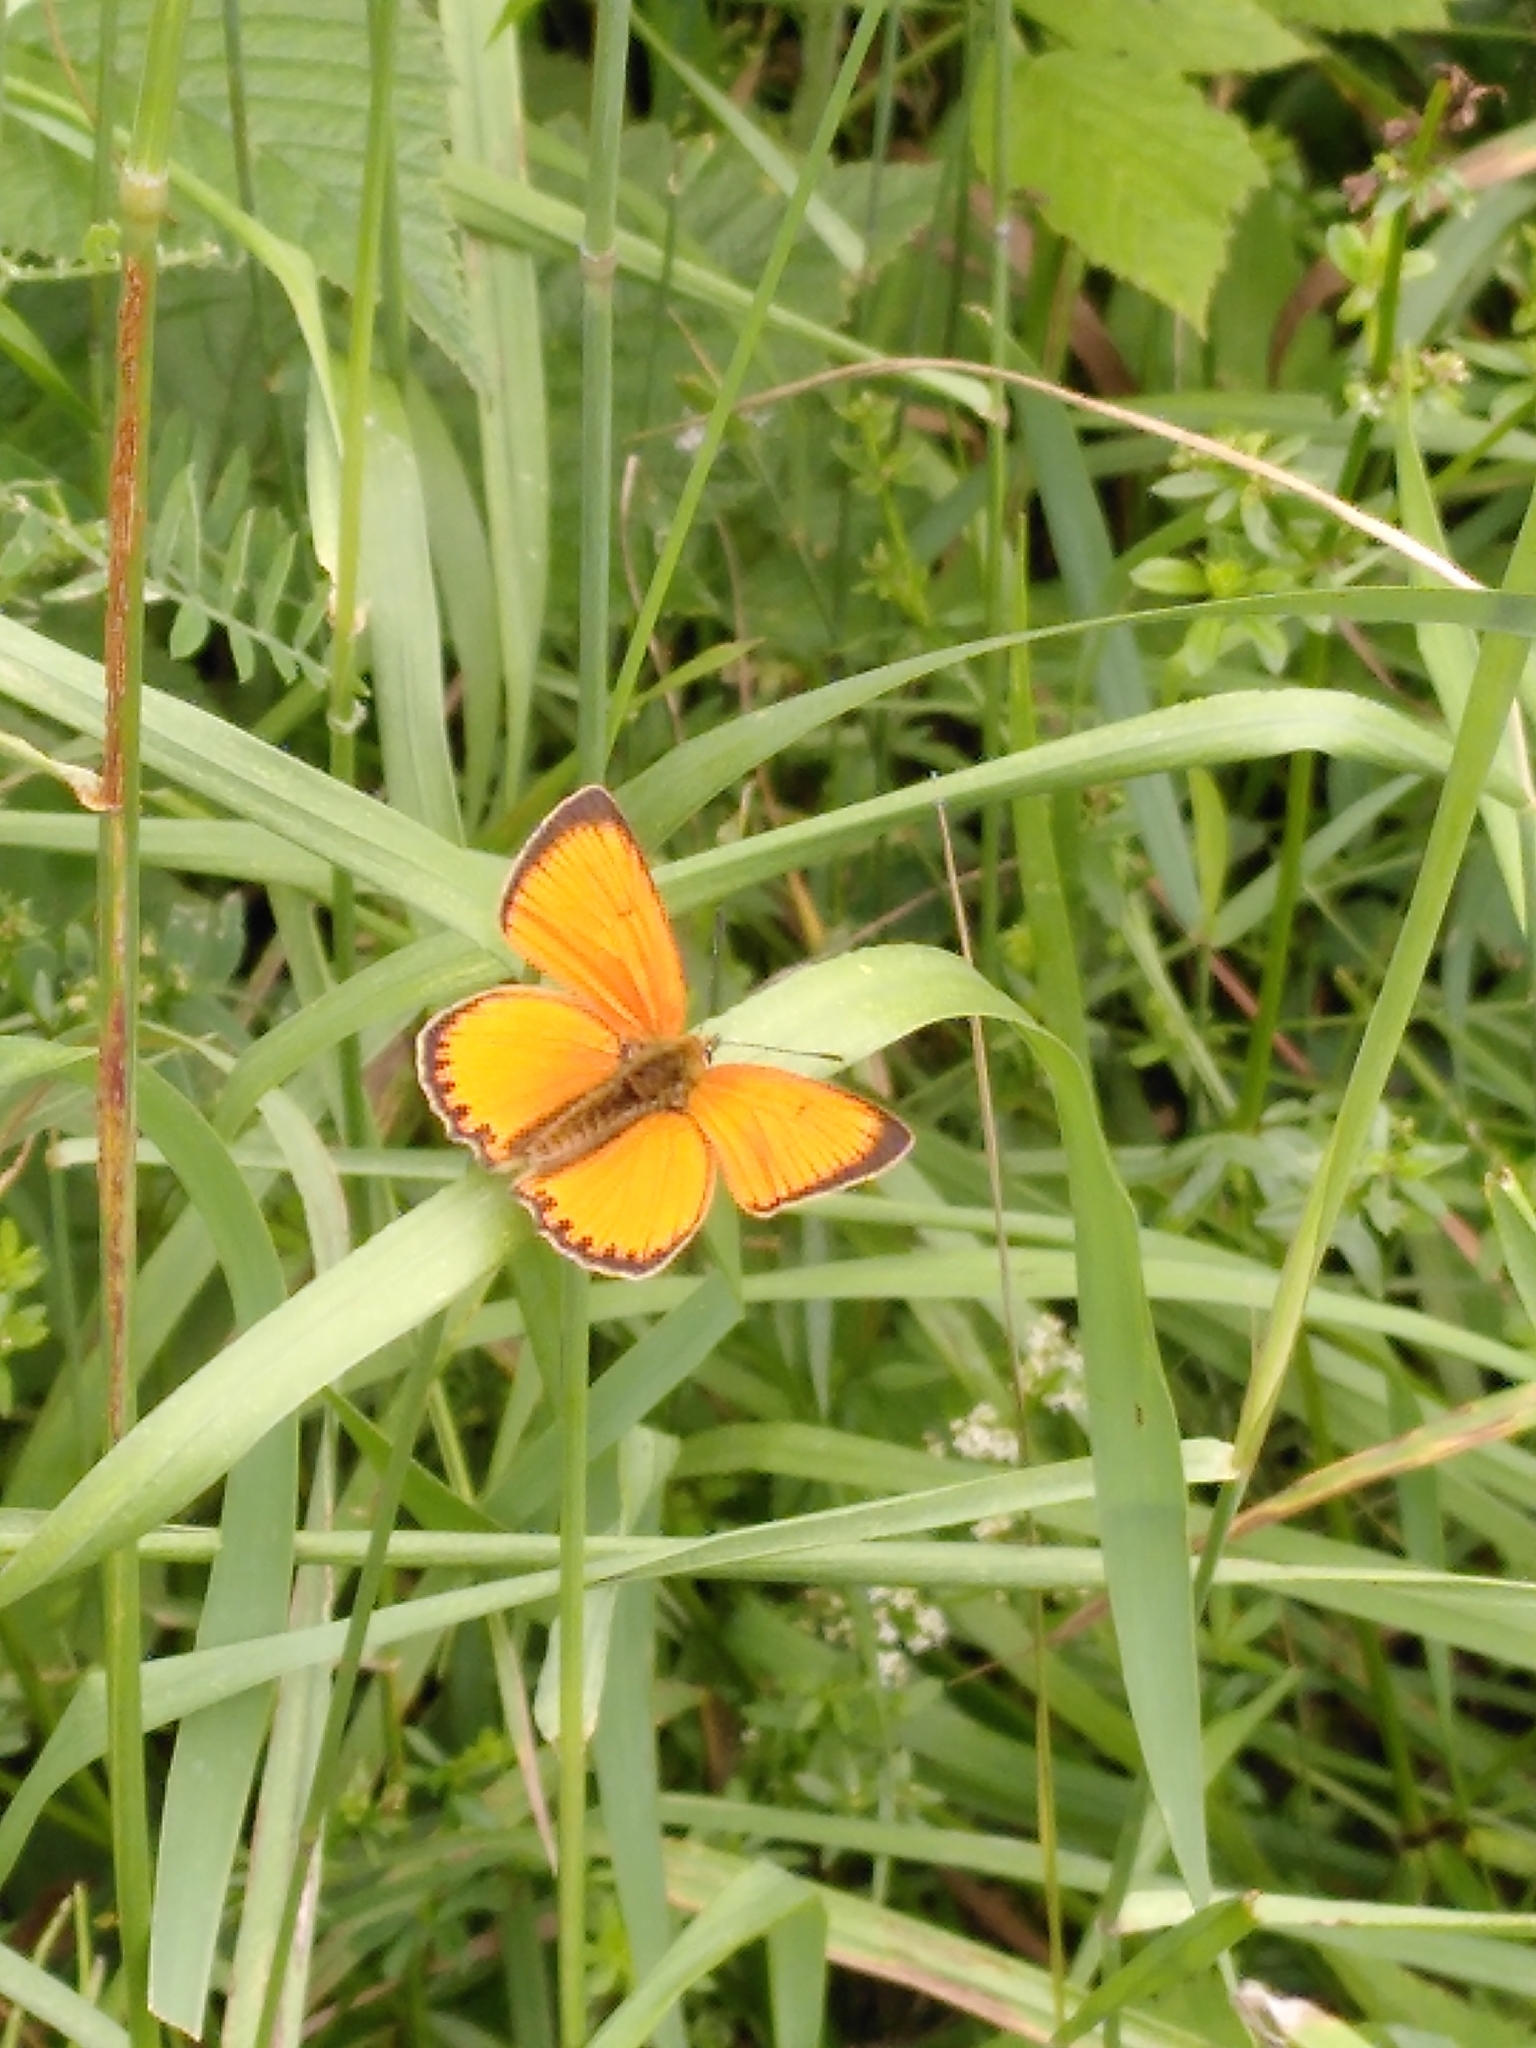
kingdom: Animalia
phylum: Arthropoda
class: Insecta
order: Lepidoptera
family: Lycaenidae
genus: Lycaena
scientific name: Lycaena virgaureae
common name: Scarce copper
